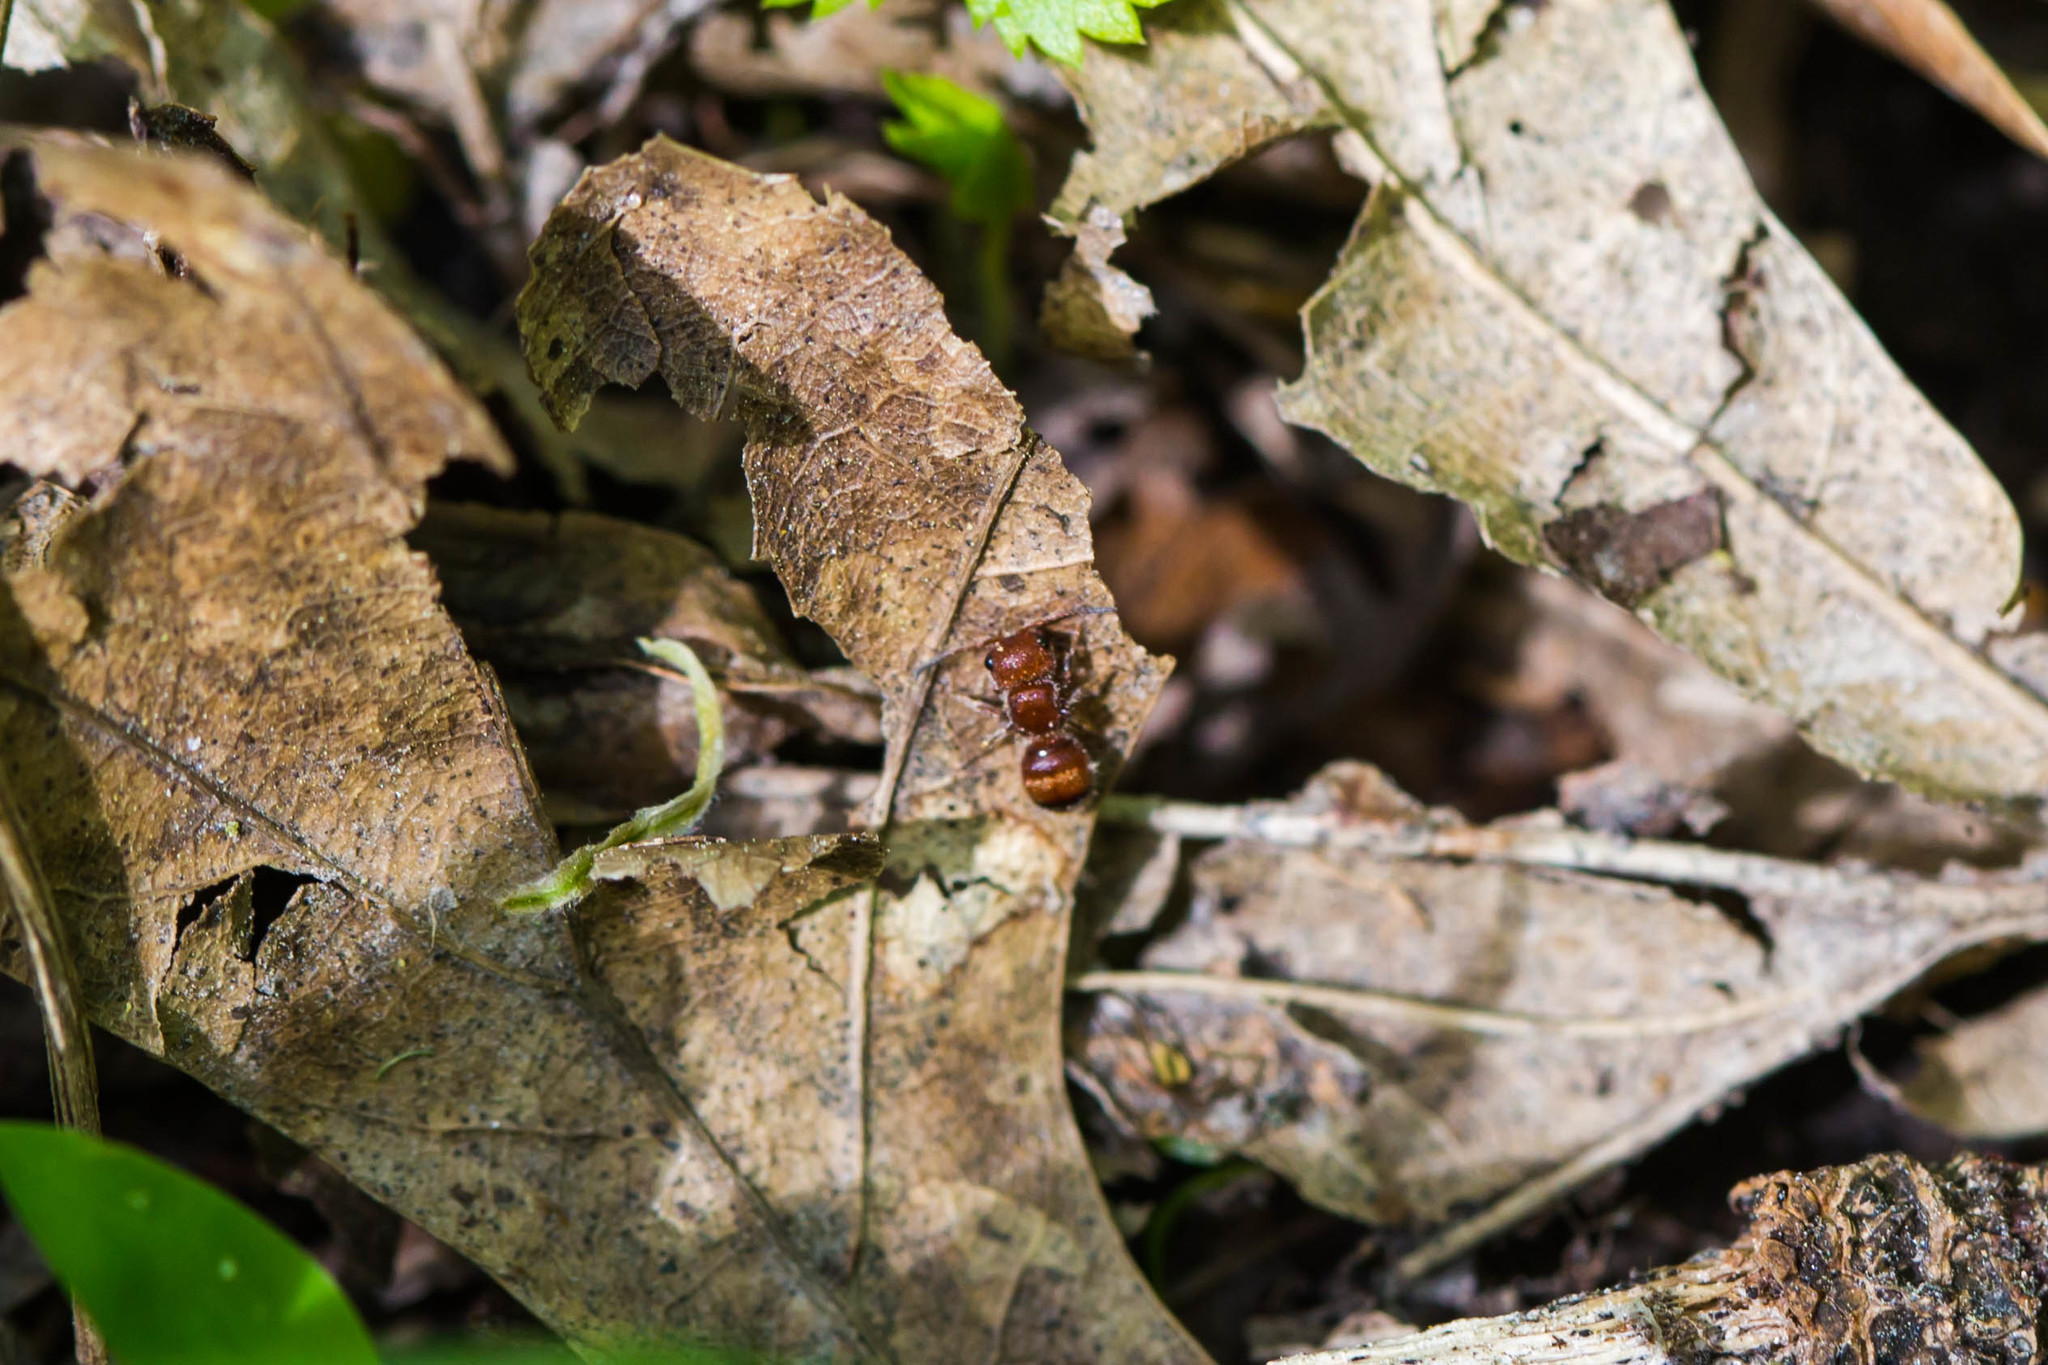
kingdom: Animalia
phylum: Arthropoda
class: Insecta
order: Hymenoptera
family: Mutillidae
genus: Pseudomethoca
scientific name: Pseudomethoca
